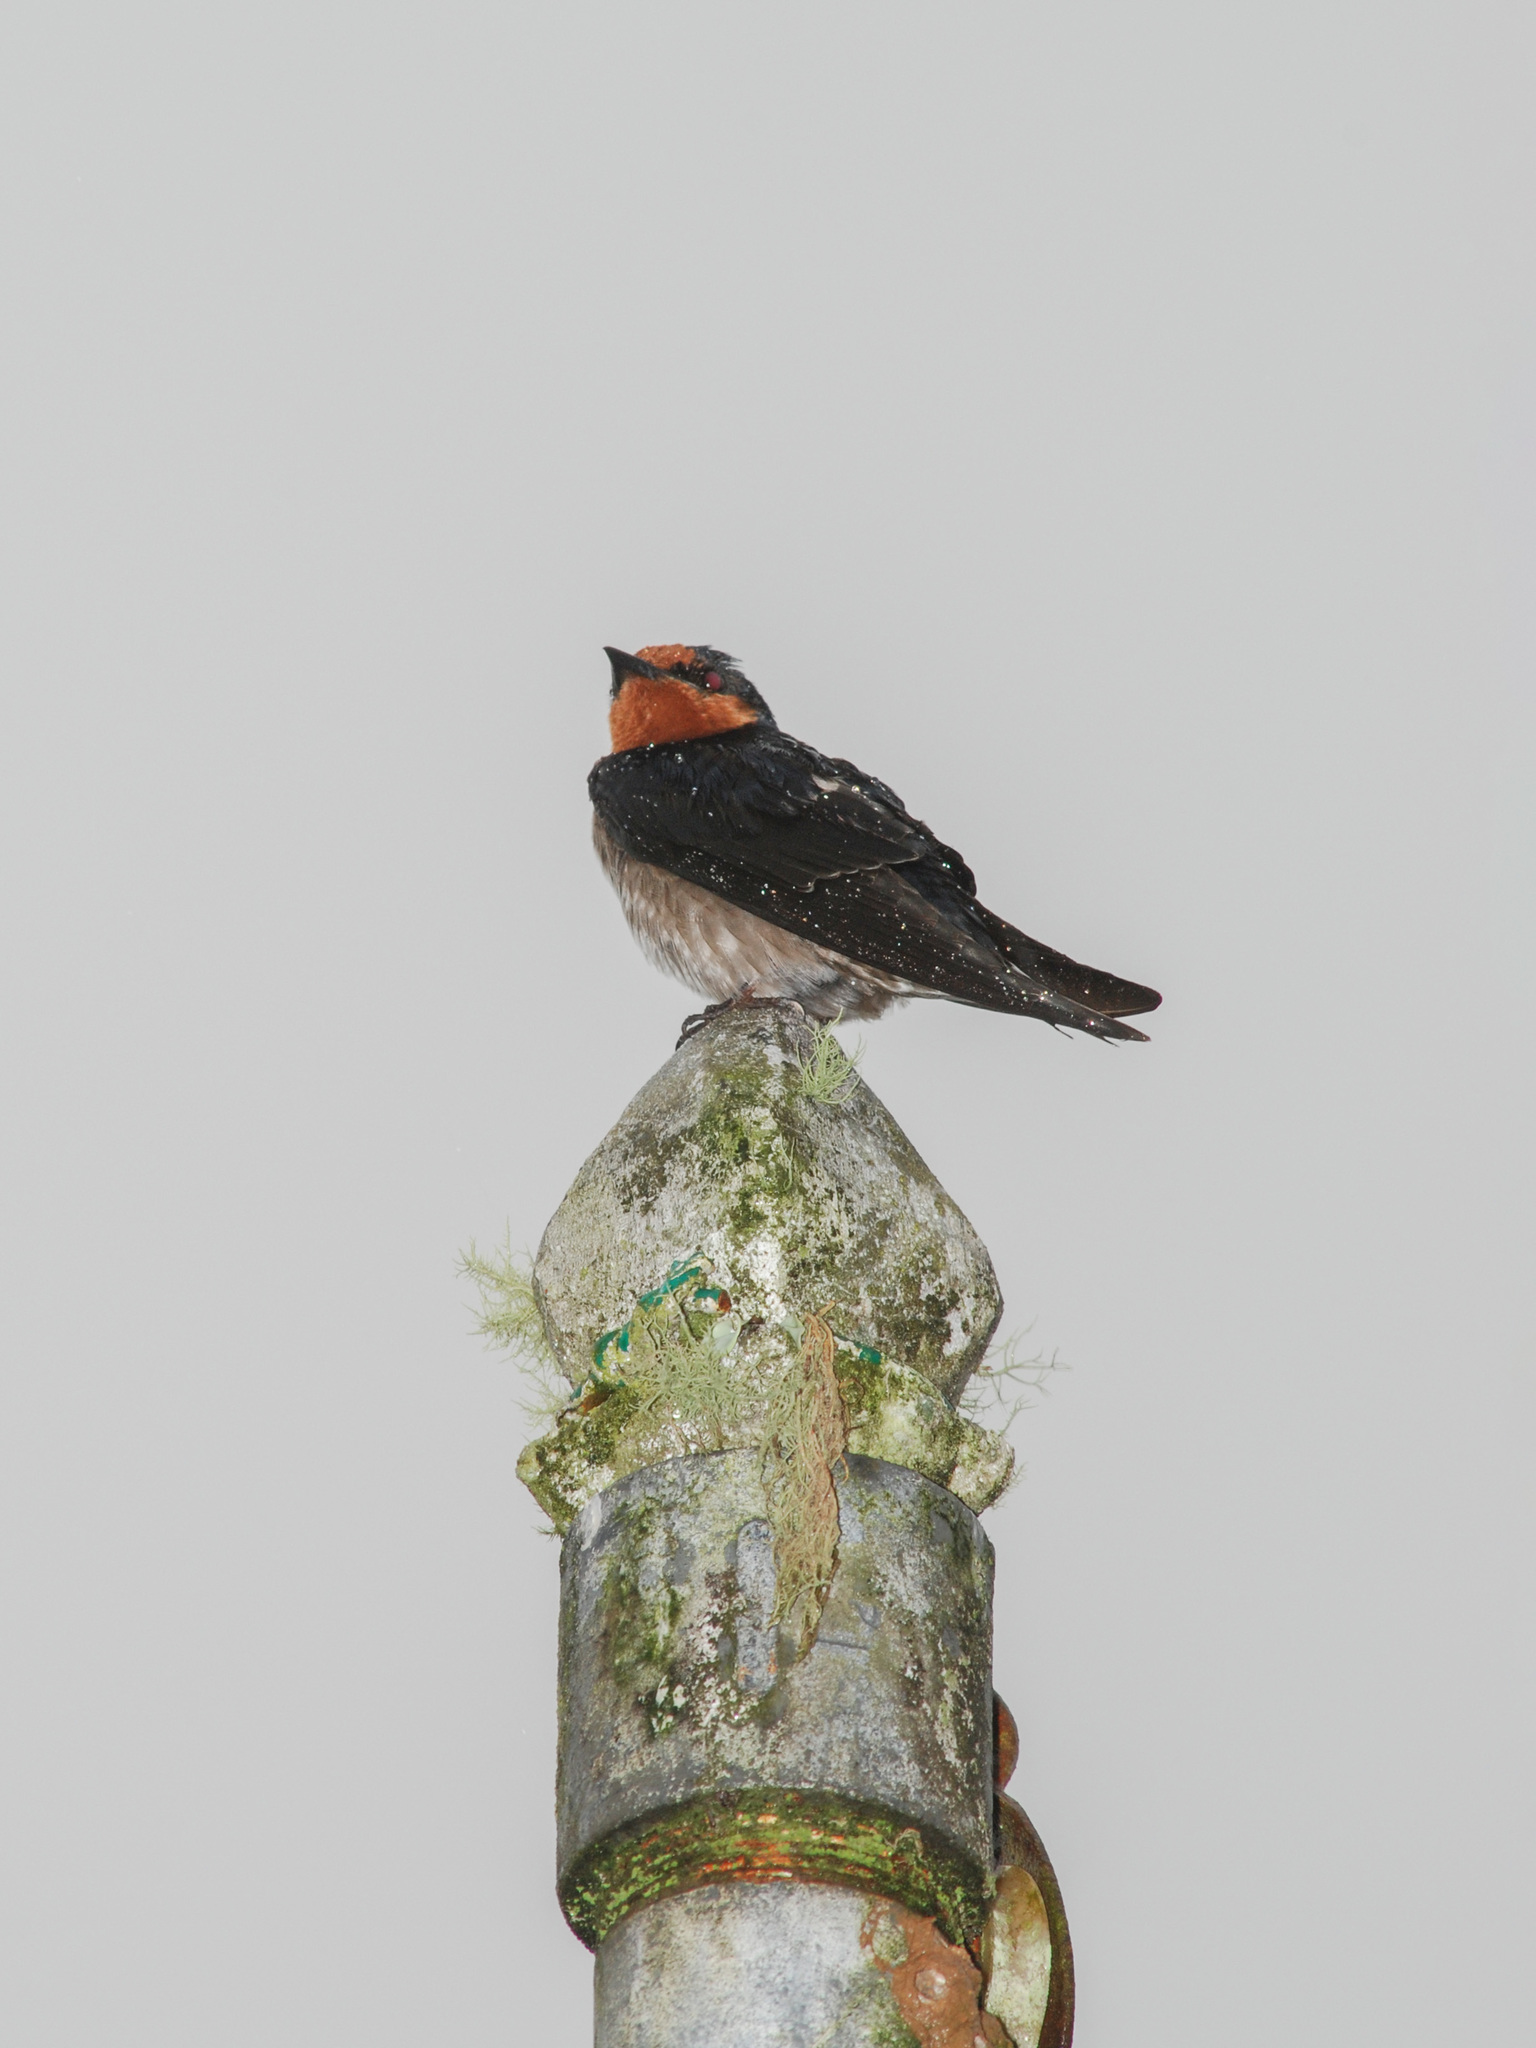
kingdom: Animalia
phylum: Chordata
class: Aves
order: Passeriformes
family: Hirundinidae
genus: Hirundo
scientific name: Hirundo tahitica
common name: Pacific swallow
